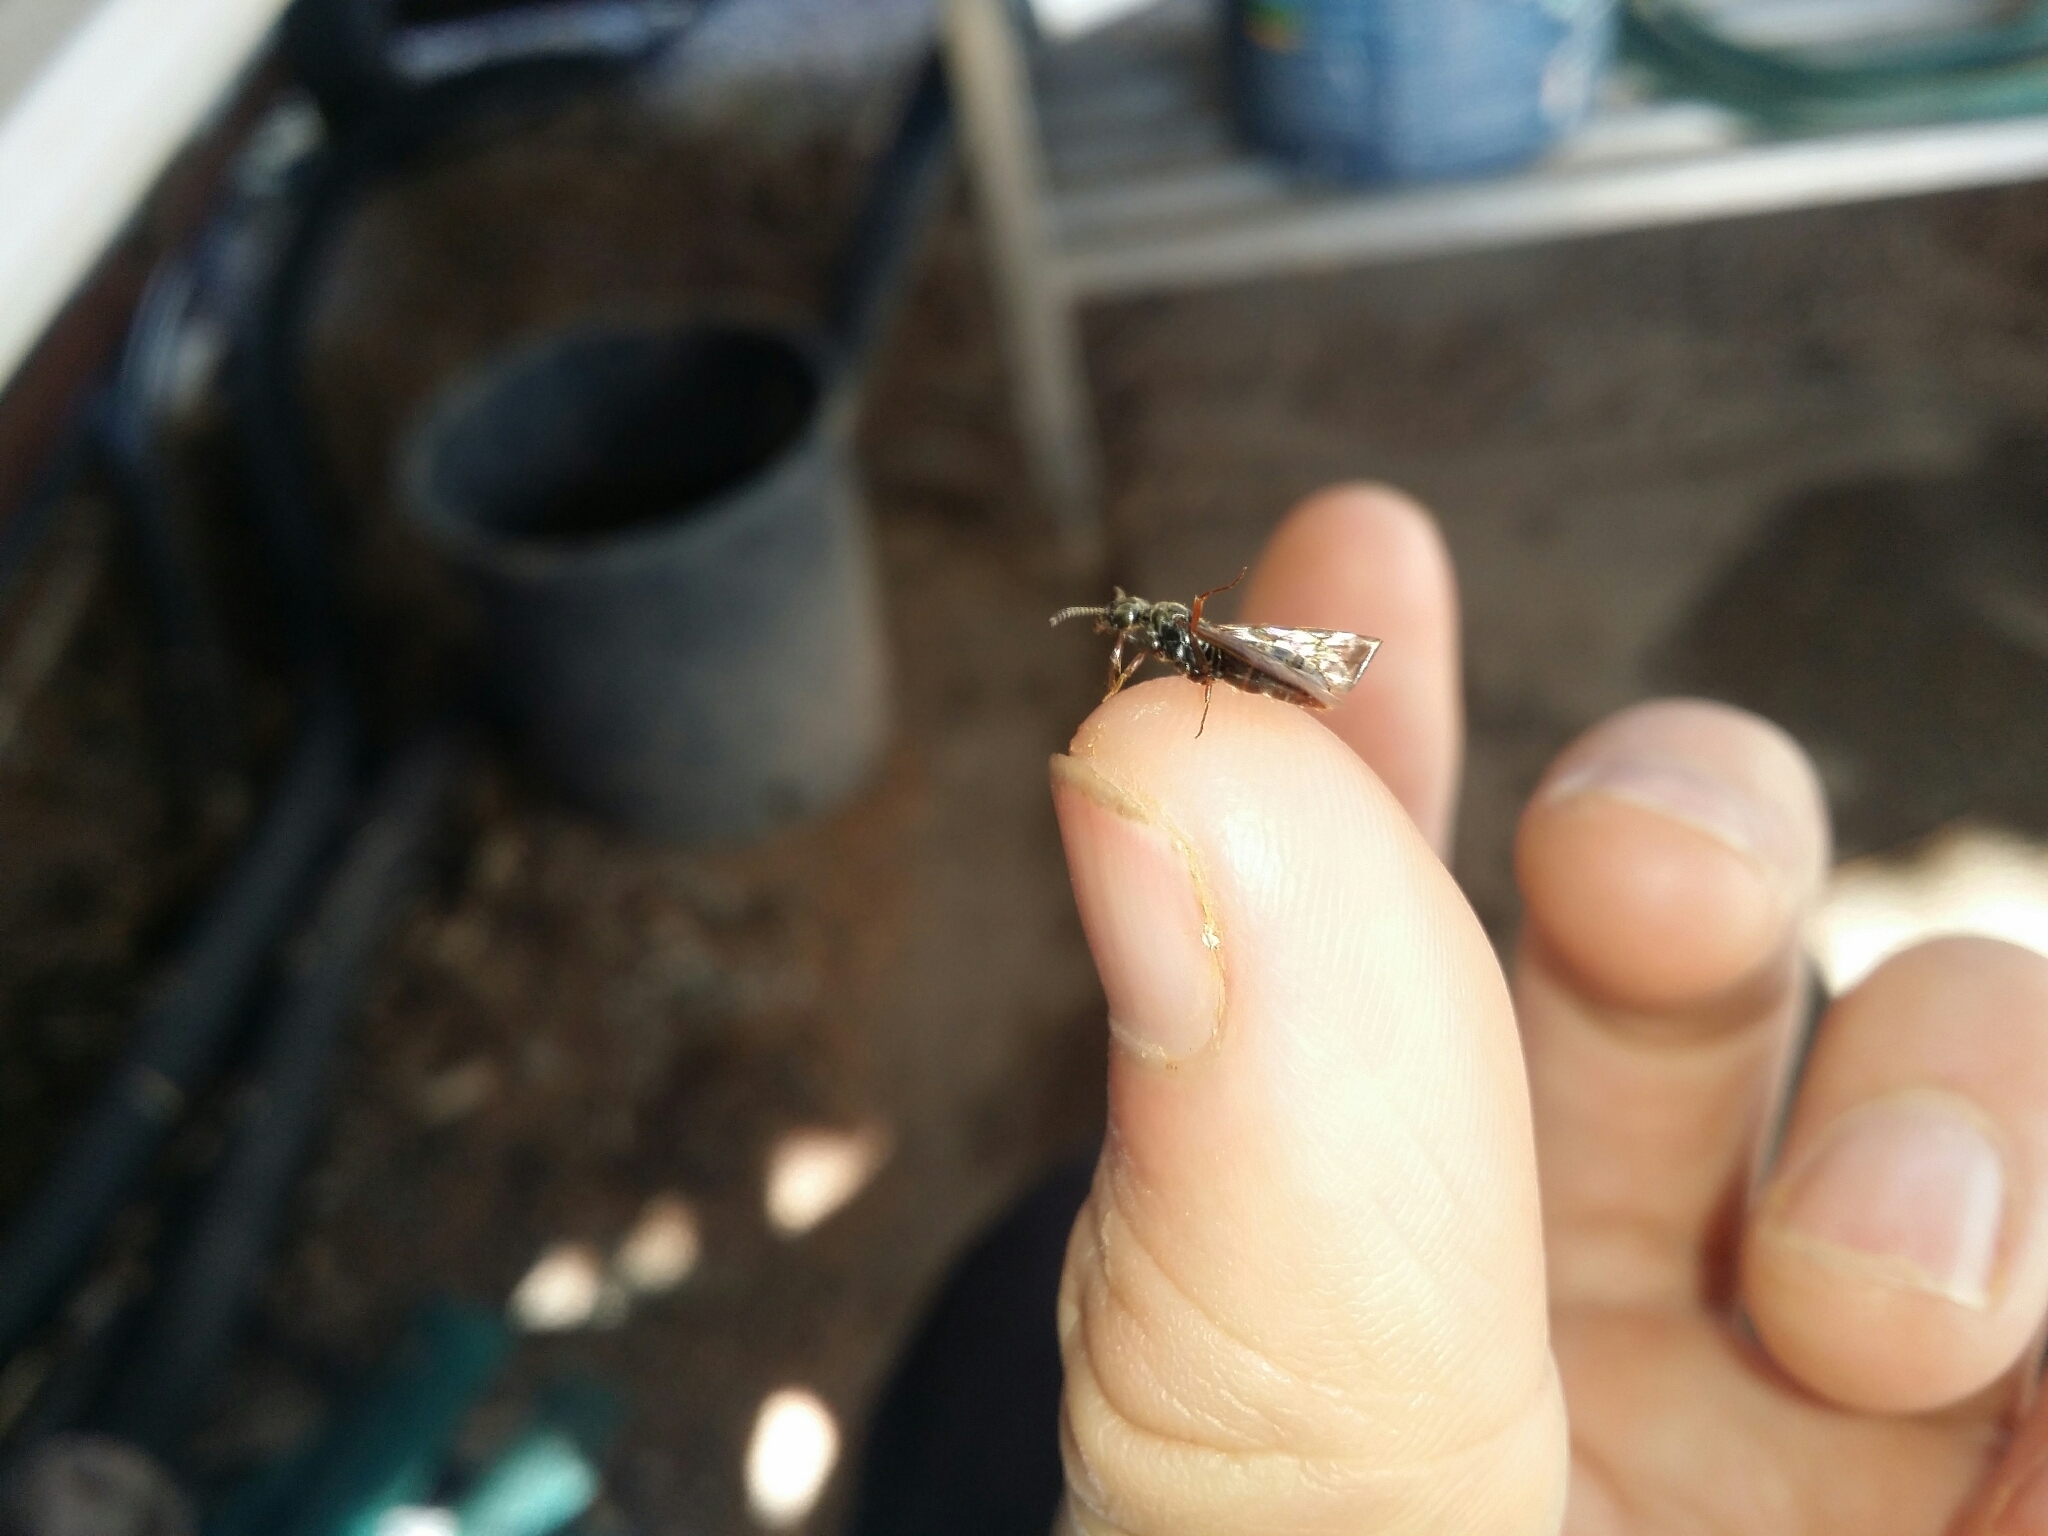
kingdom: Animalia
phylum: Arthropoda
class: Insecta
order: Hymenoptera
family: Formicidae
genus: Brachyponera
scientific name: Brachyponera
